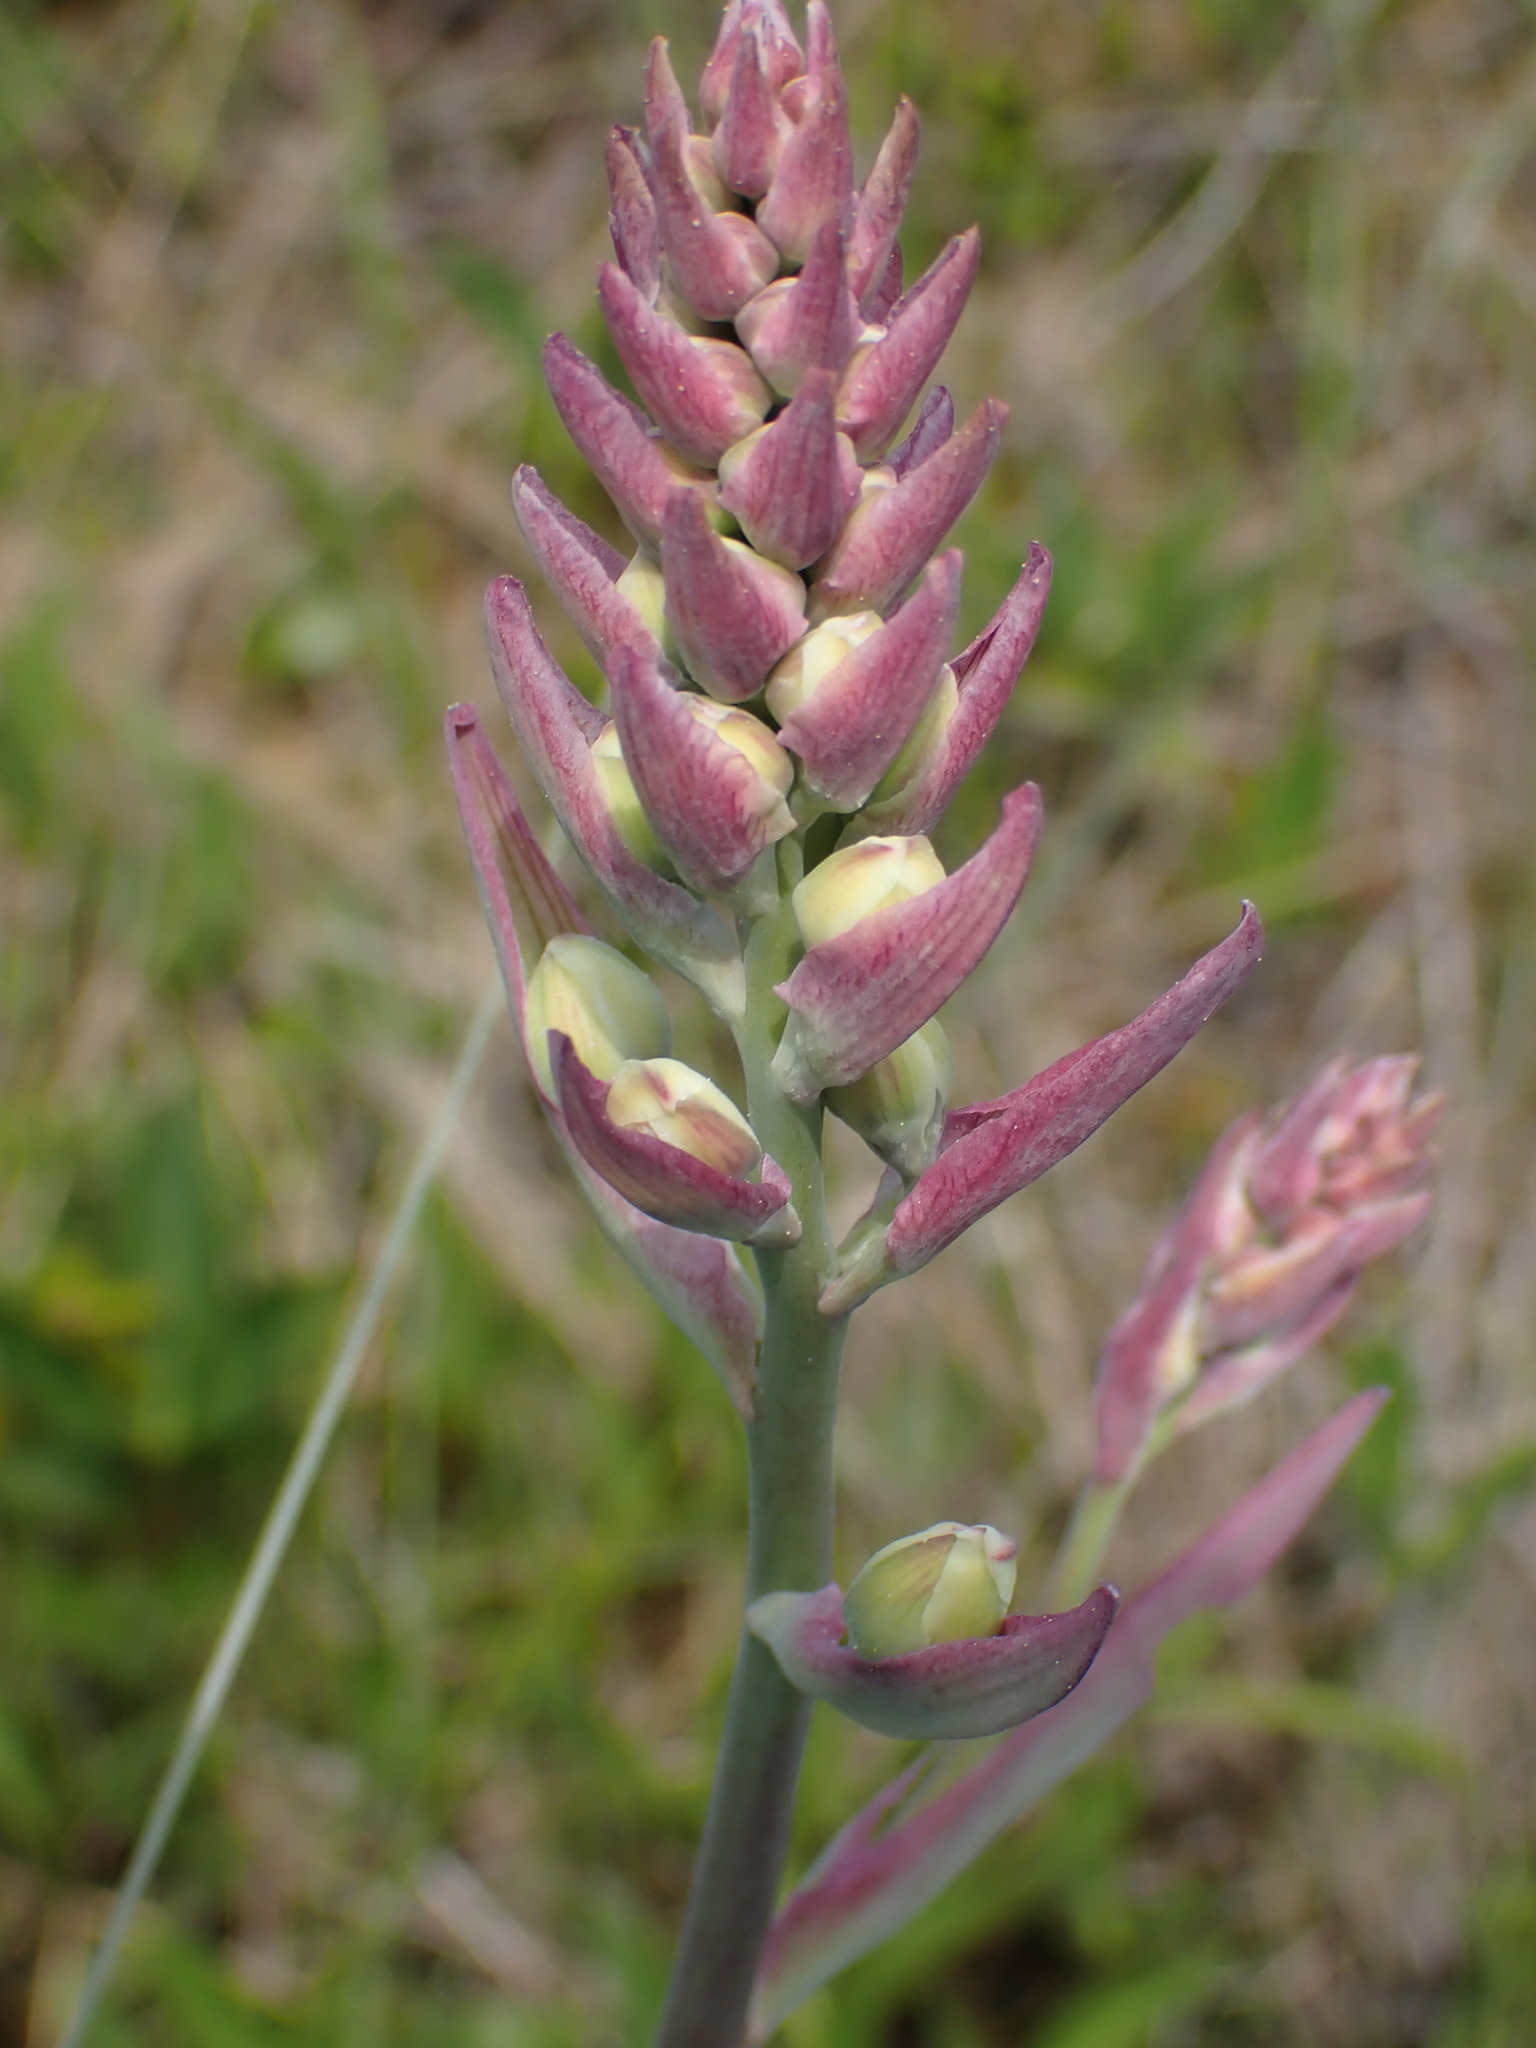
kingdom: Plantae
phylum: Tracheophyta
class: Liliopsida
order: Liliales
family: Melanthiaceae
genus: Anticlea
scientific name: Anticlea elegans
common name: Mountain death camas
